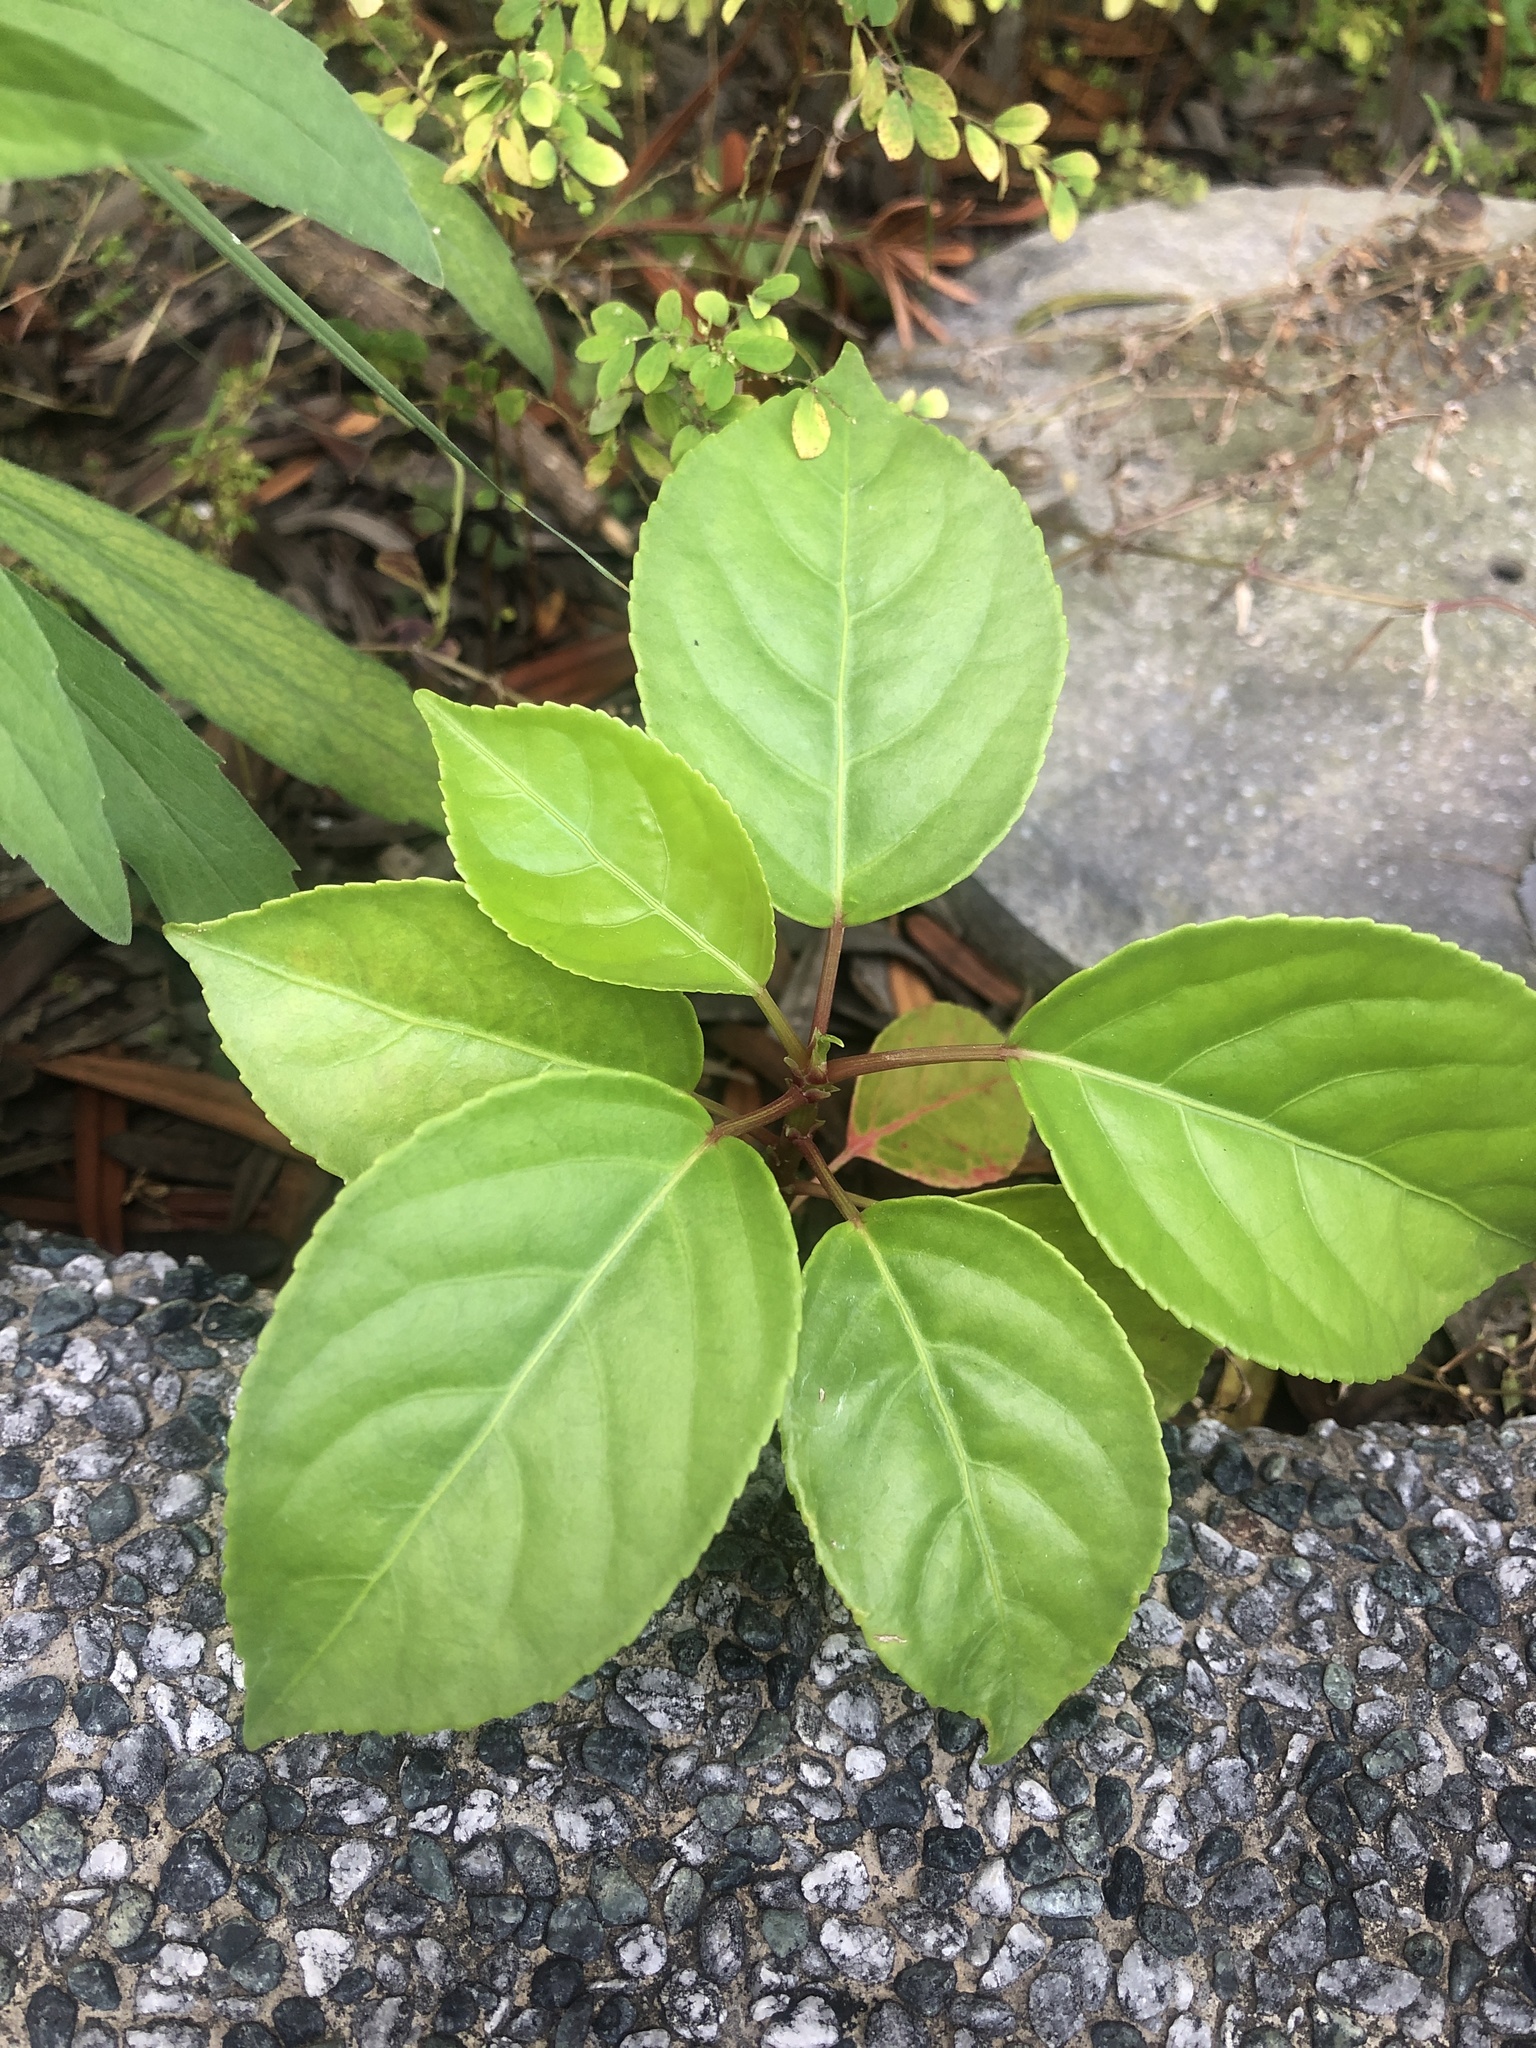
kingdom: Plantae
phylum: Tracheophyta
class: Magnoliopsida
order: Malpighiales
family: Phyllanthaceae
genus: Bischofia
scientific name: Bischofia javanica
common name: Javanese bishopwood
